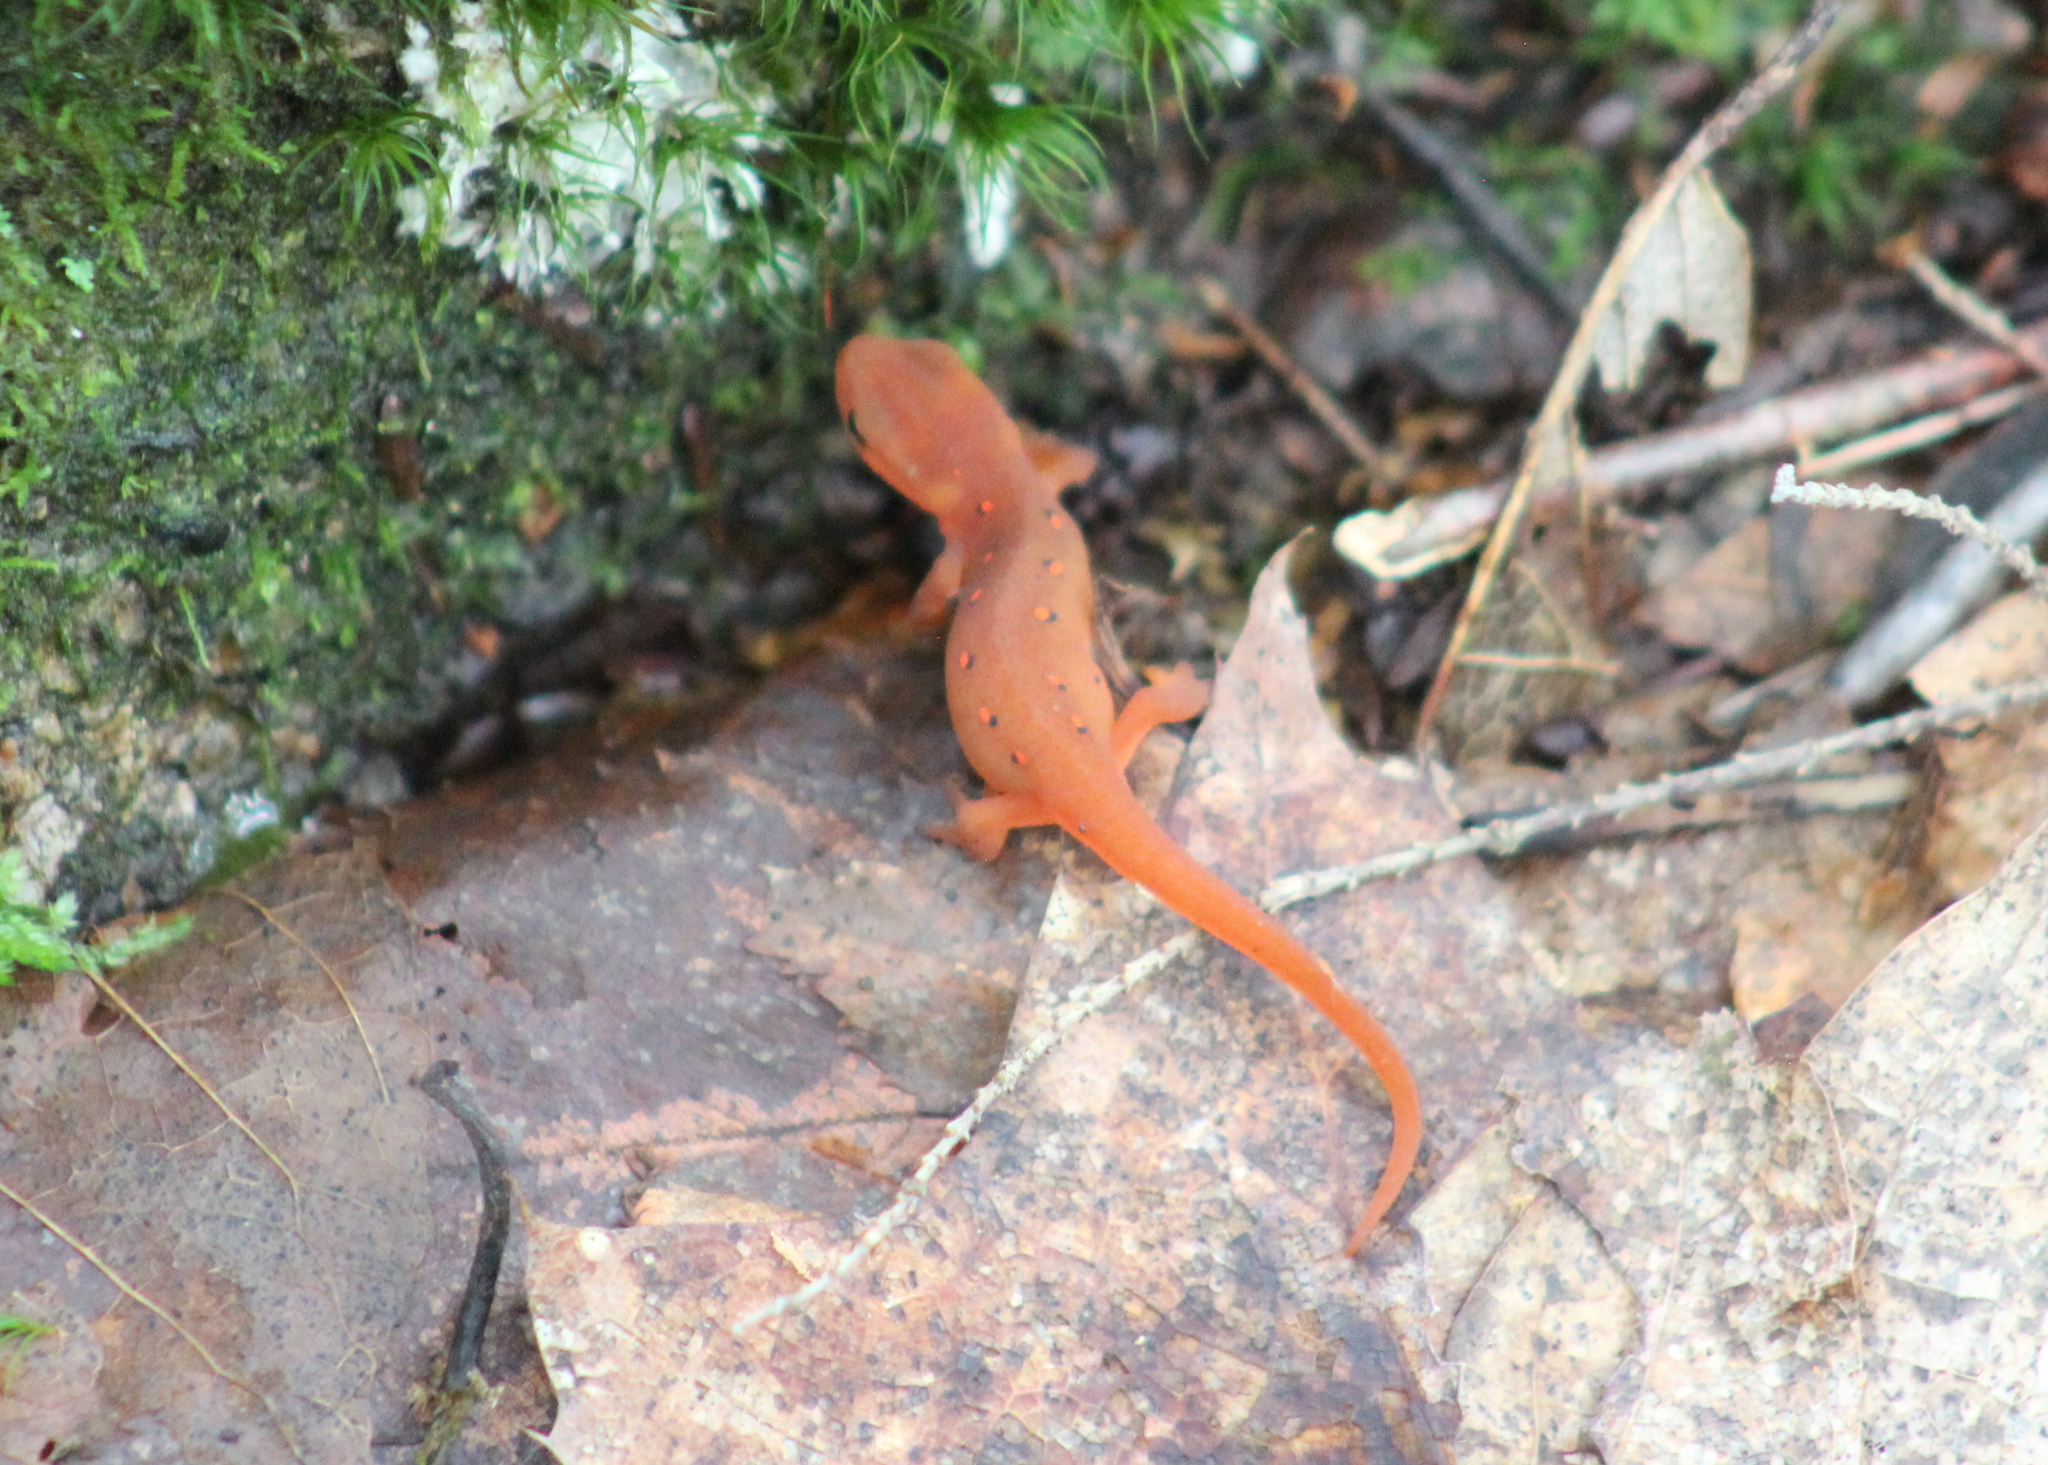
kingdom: Animalia
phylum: Chordata
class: Amphibia
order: Caudata
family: Salamandridae
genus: Notophthalmus
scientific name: Notophthalmus viridescens
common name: Eastern newt
